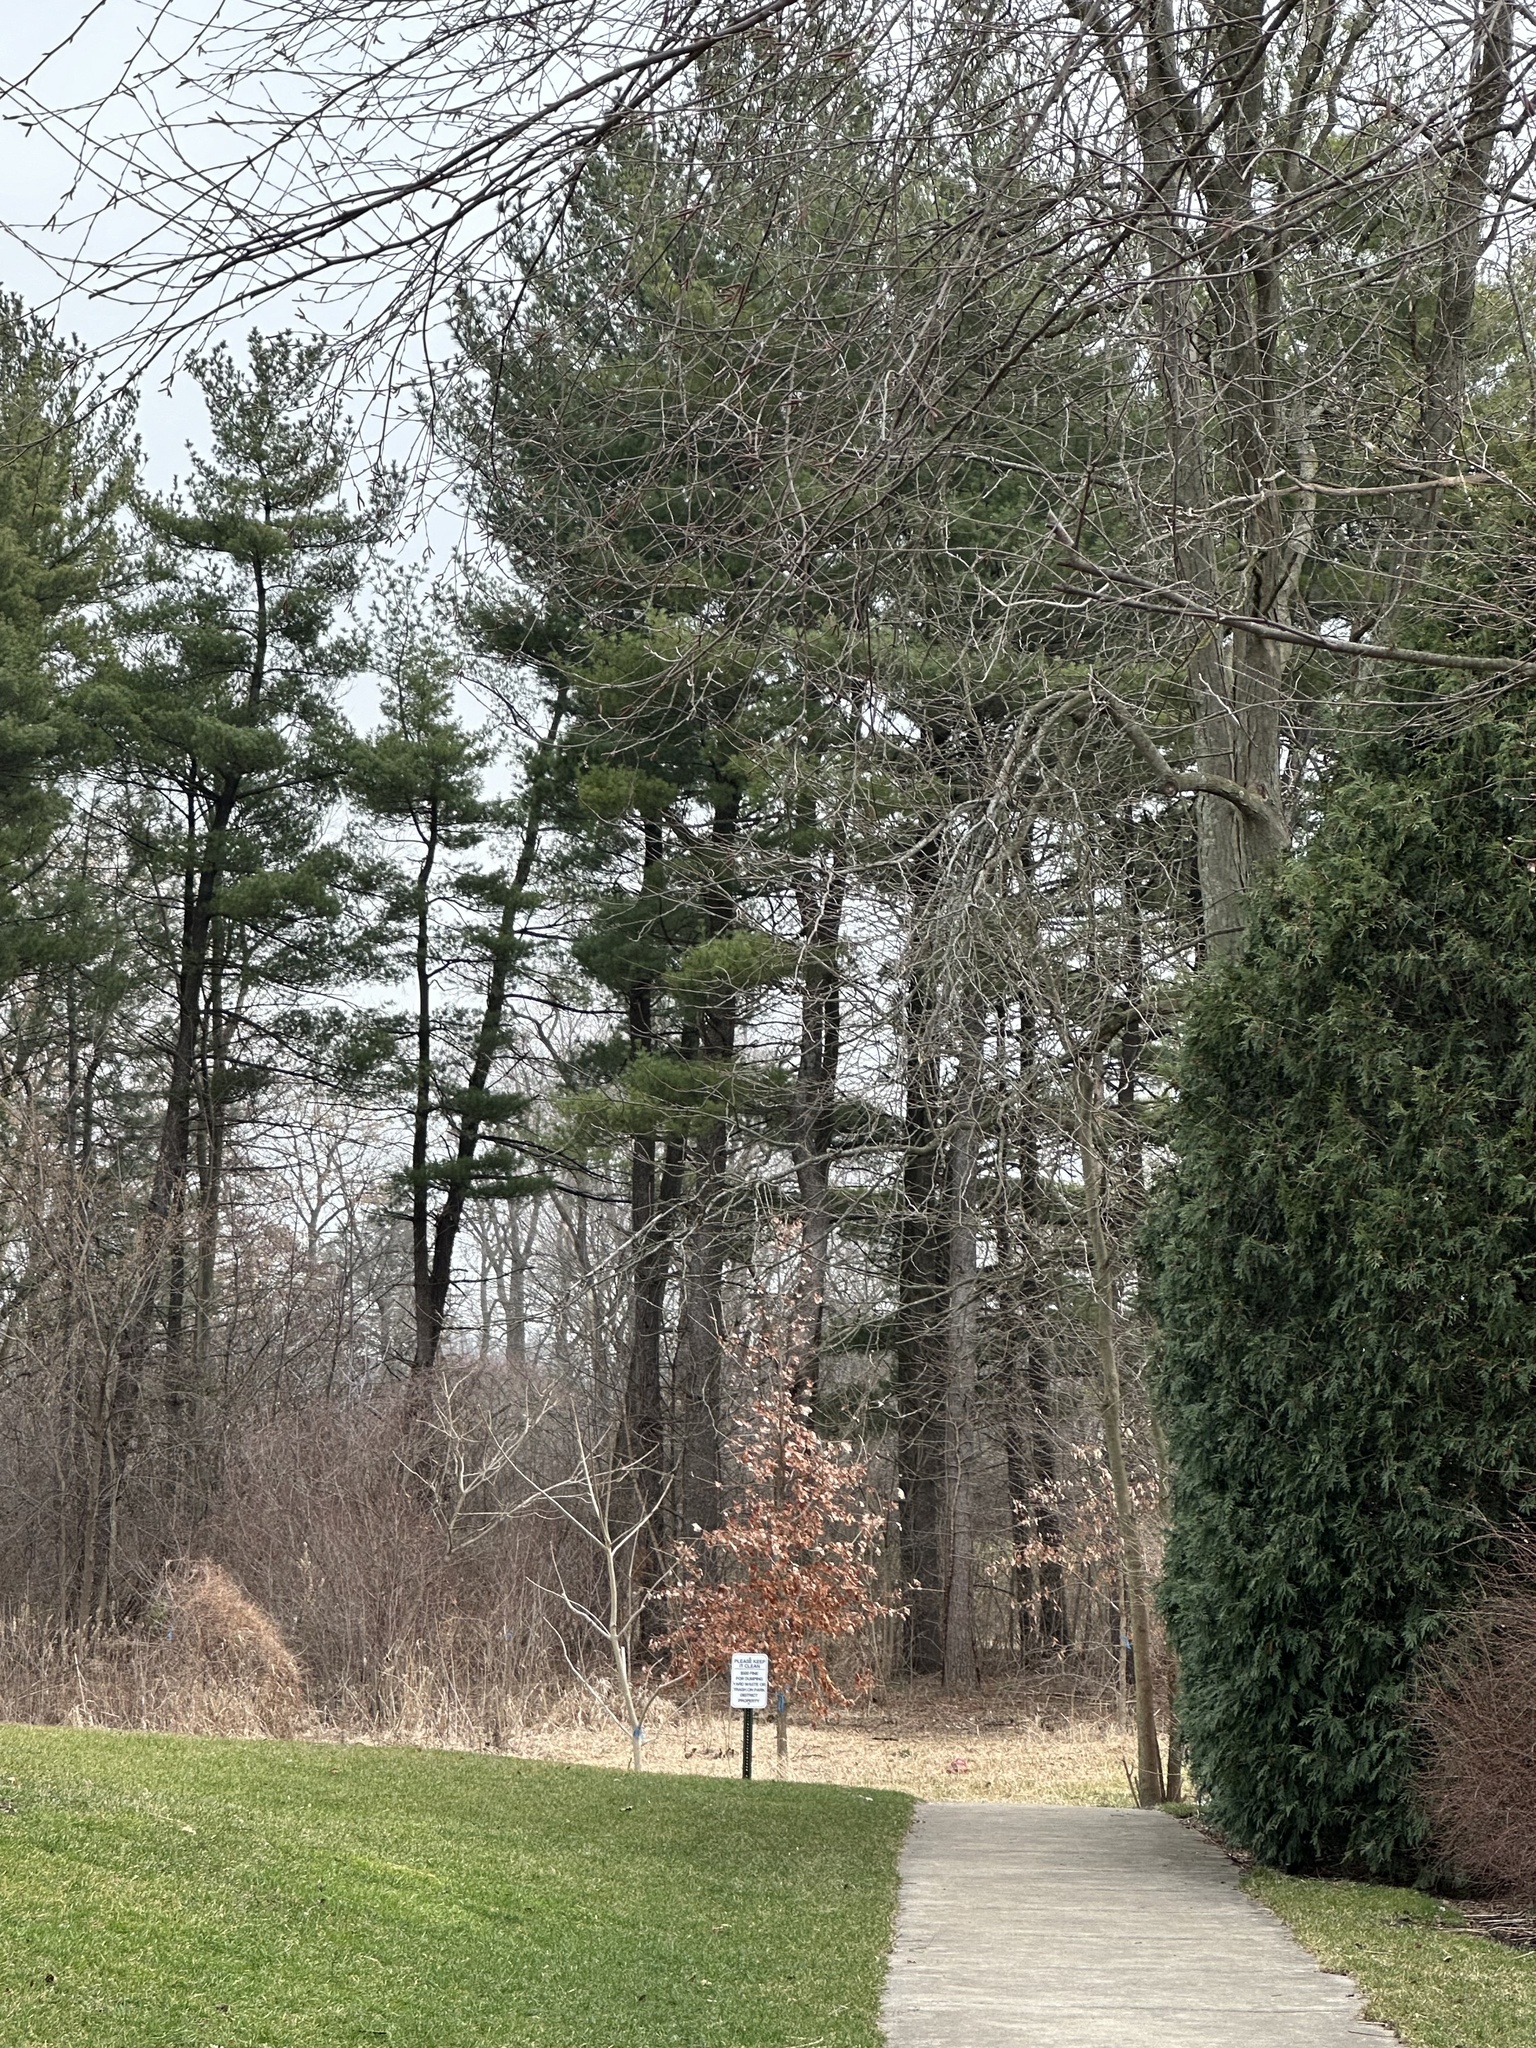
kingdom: Plantae
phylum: Tracheophyta
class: Pinopsida
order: Pinales
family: Pinaceae
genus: Pinus
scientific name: Pinus strobus
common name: Weymouth pine
